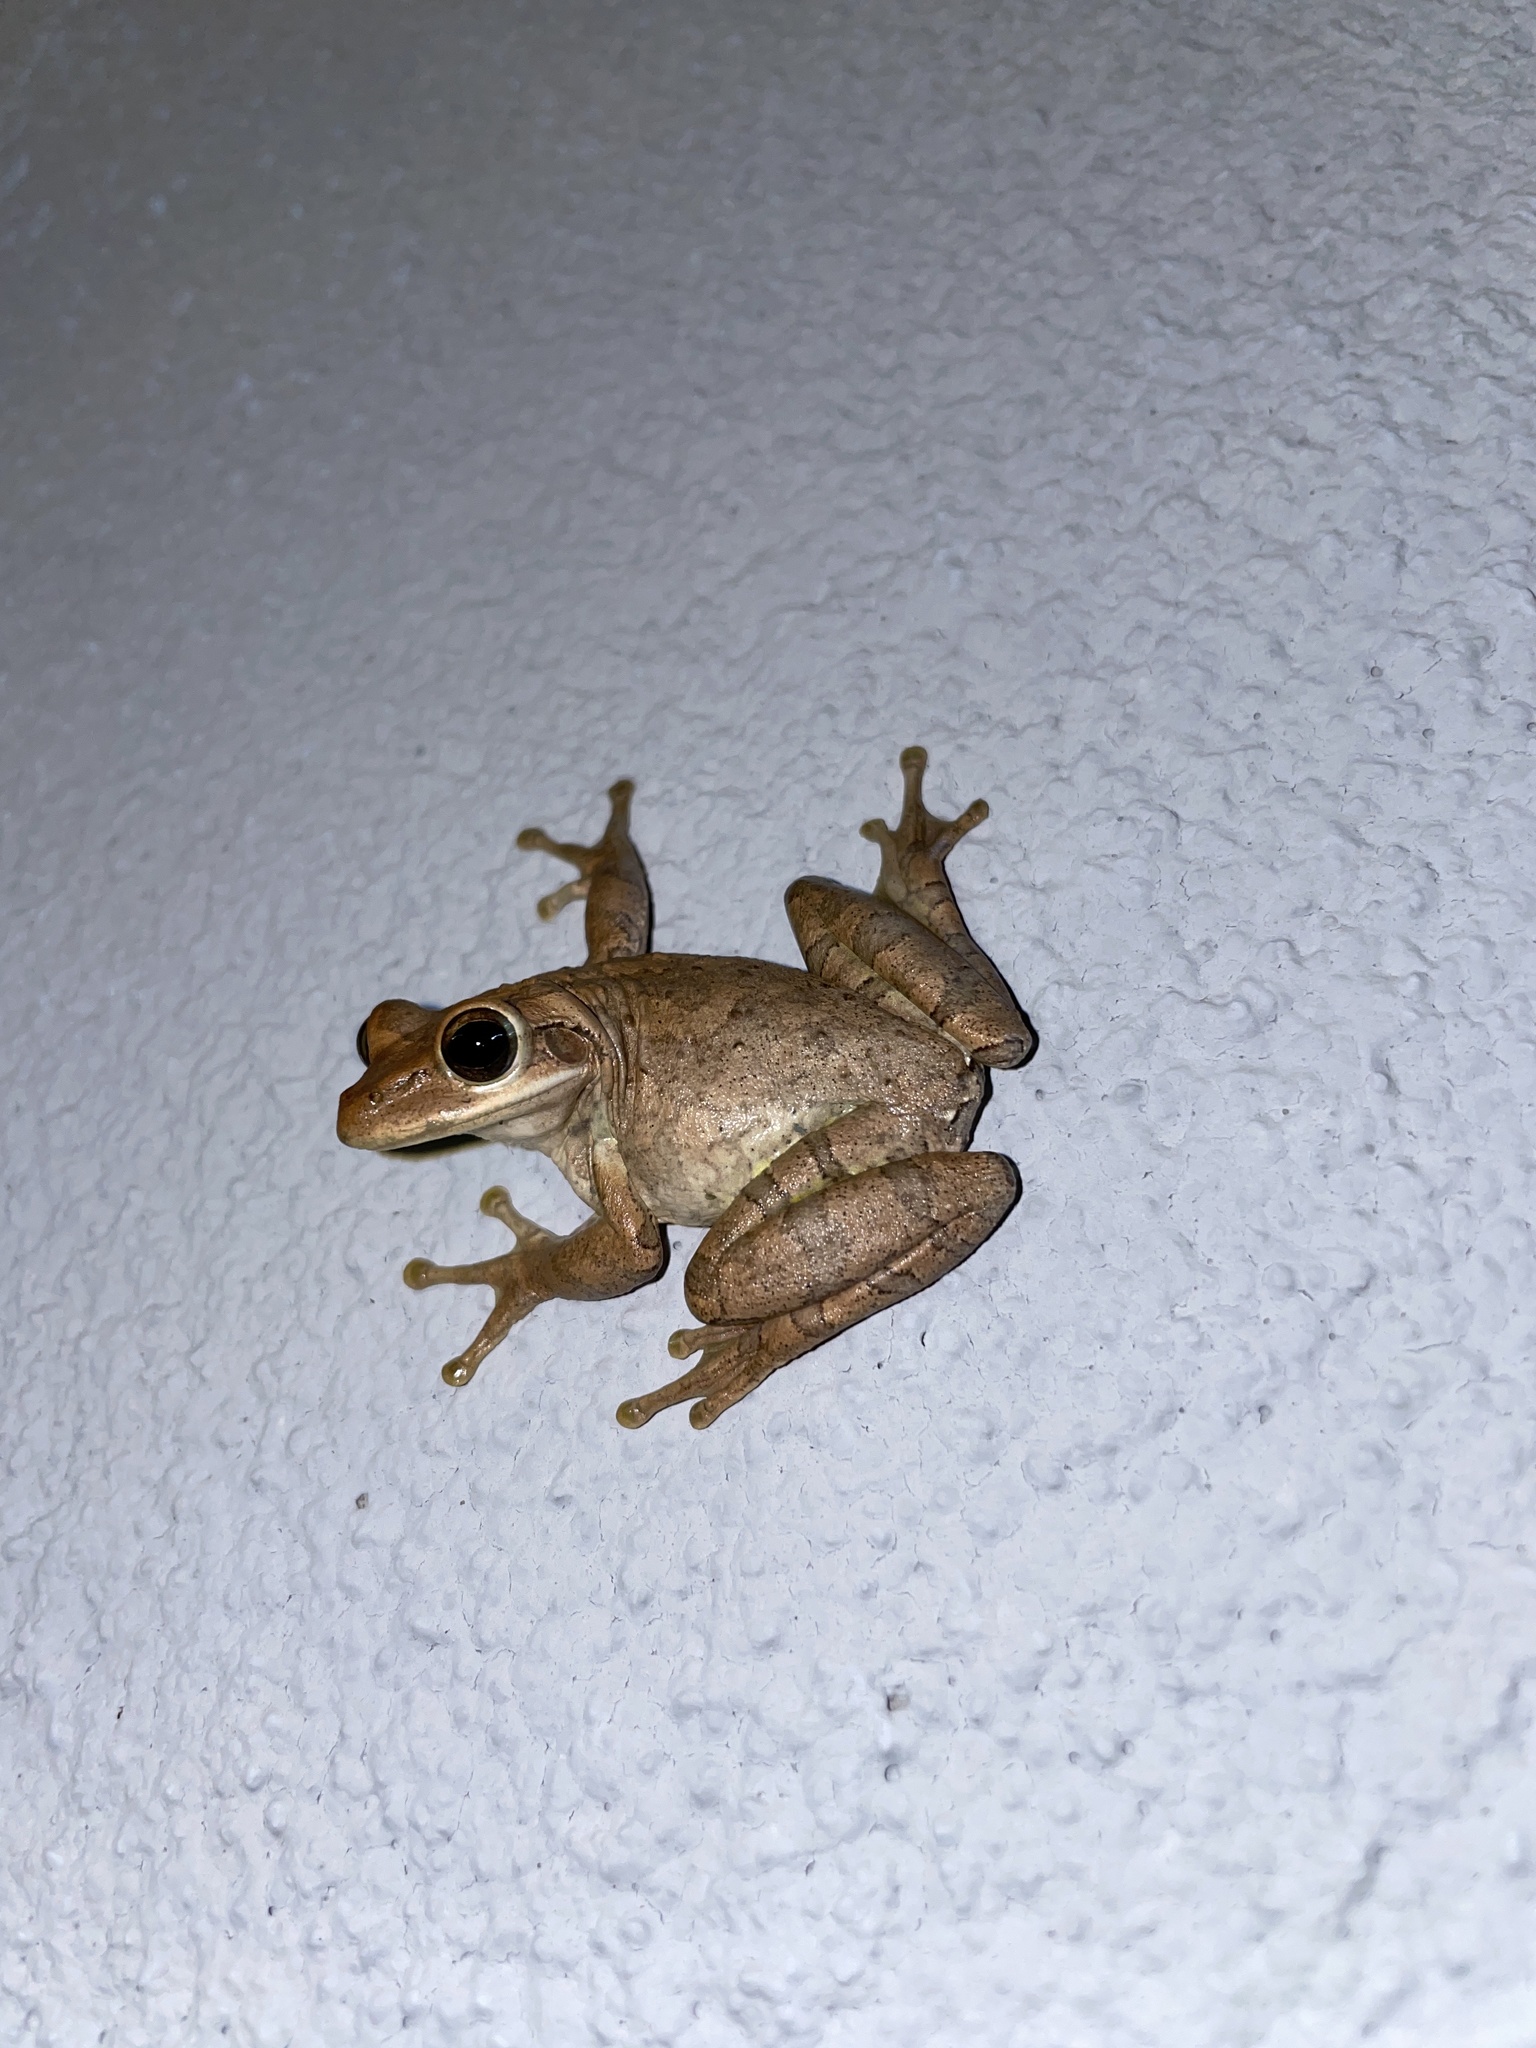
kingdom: Animalia
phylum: Chordata
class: Amphibia
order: Anura
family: Hylidae
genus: Osteopilus
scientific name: Osteopilus septentrionalis
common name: Cuban treefrog
